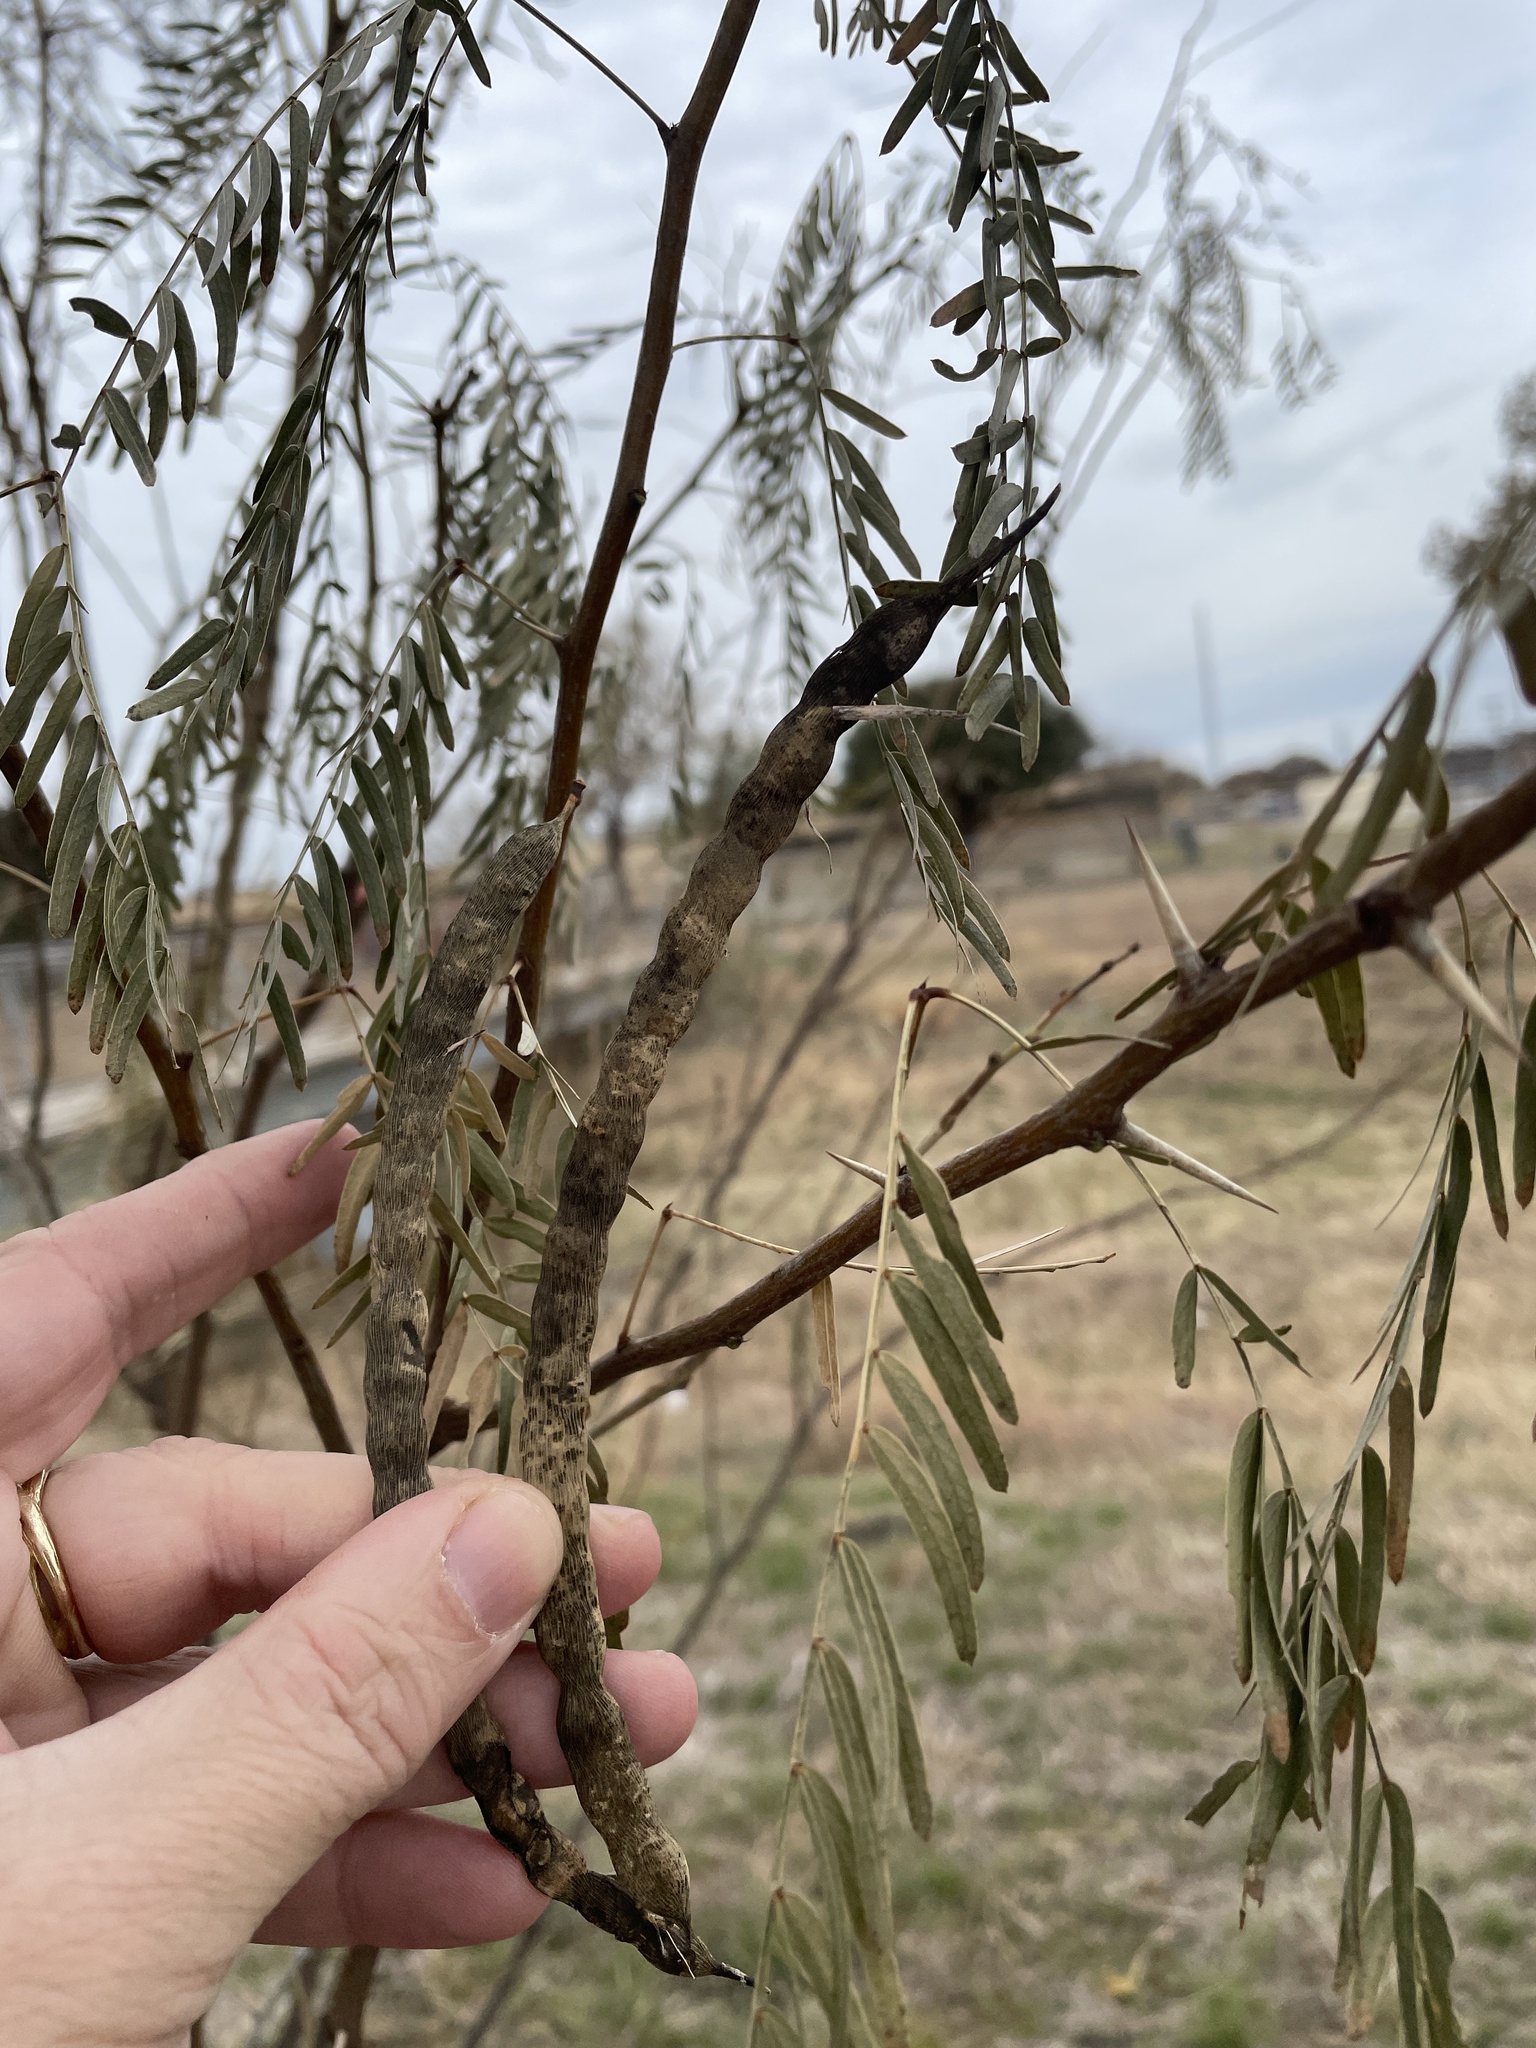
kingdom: Plantae
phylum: Tracheophyta
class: Magnoliopsida
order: Fabales
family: Fabaceae
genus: Prosopis
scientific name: Prosopis glandulosa
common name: Honey mesquite
